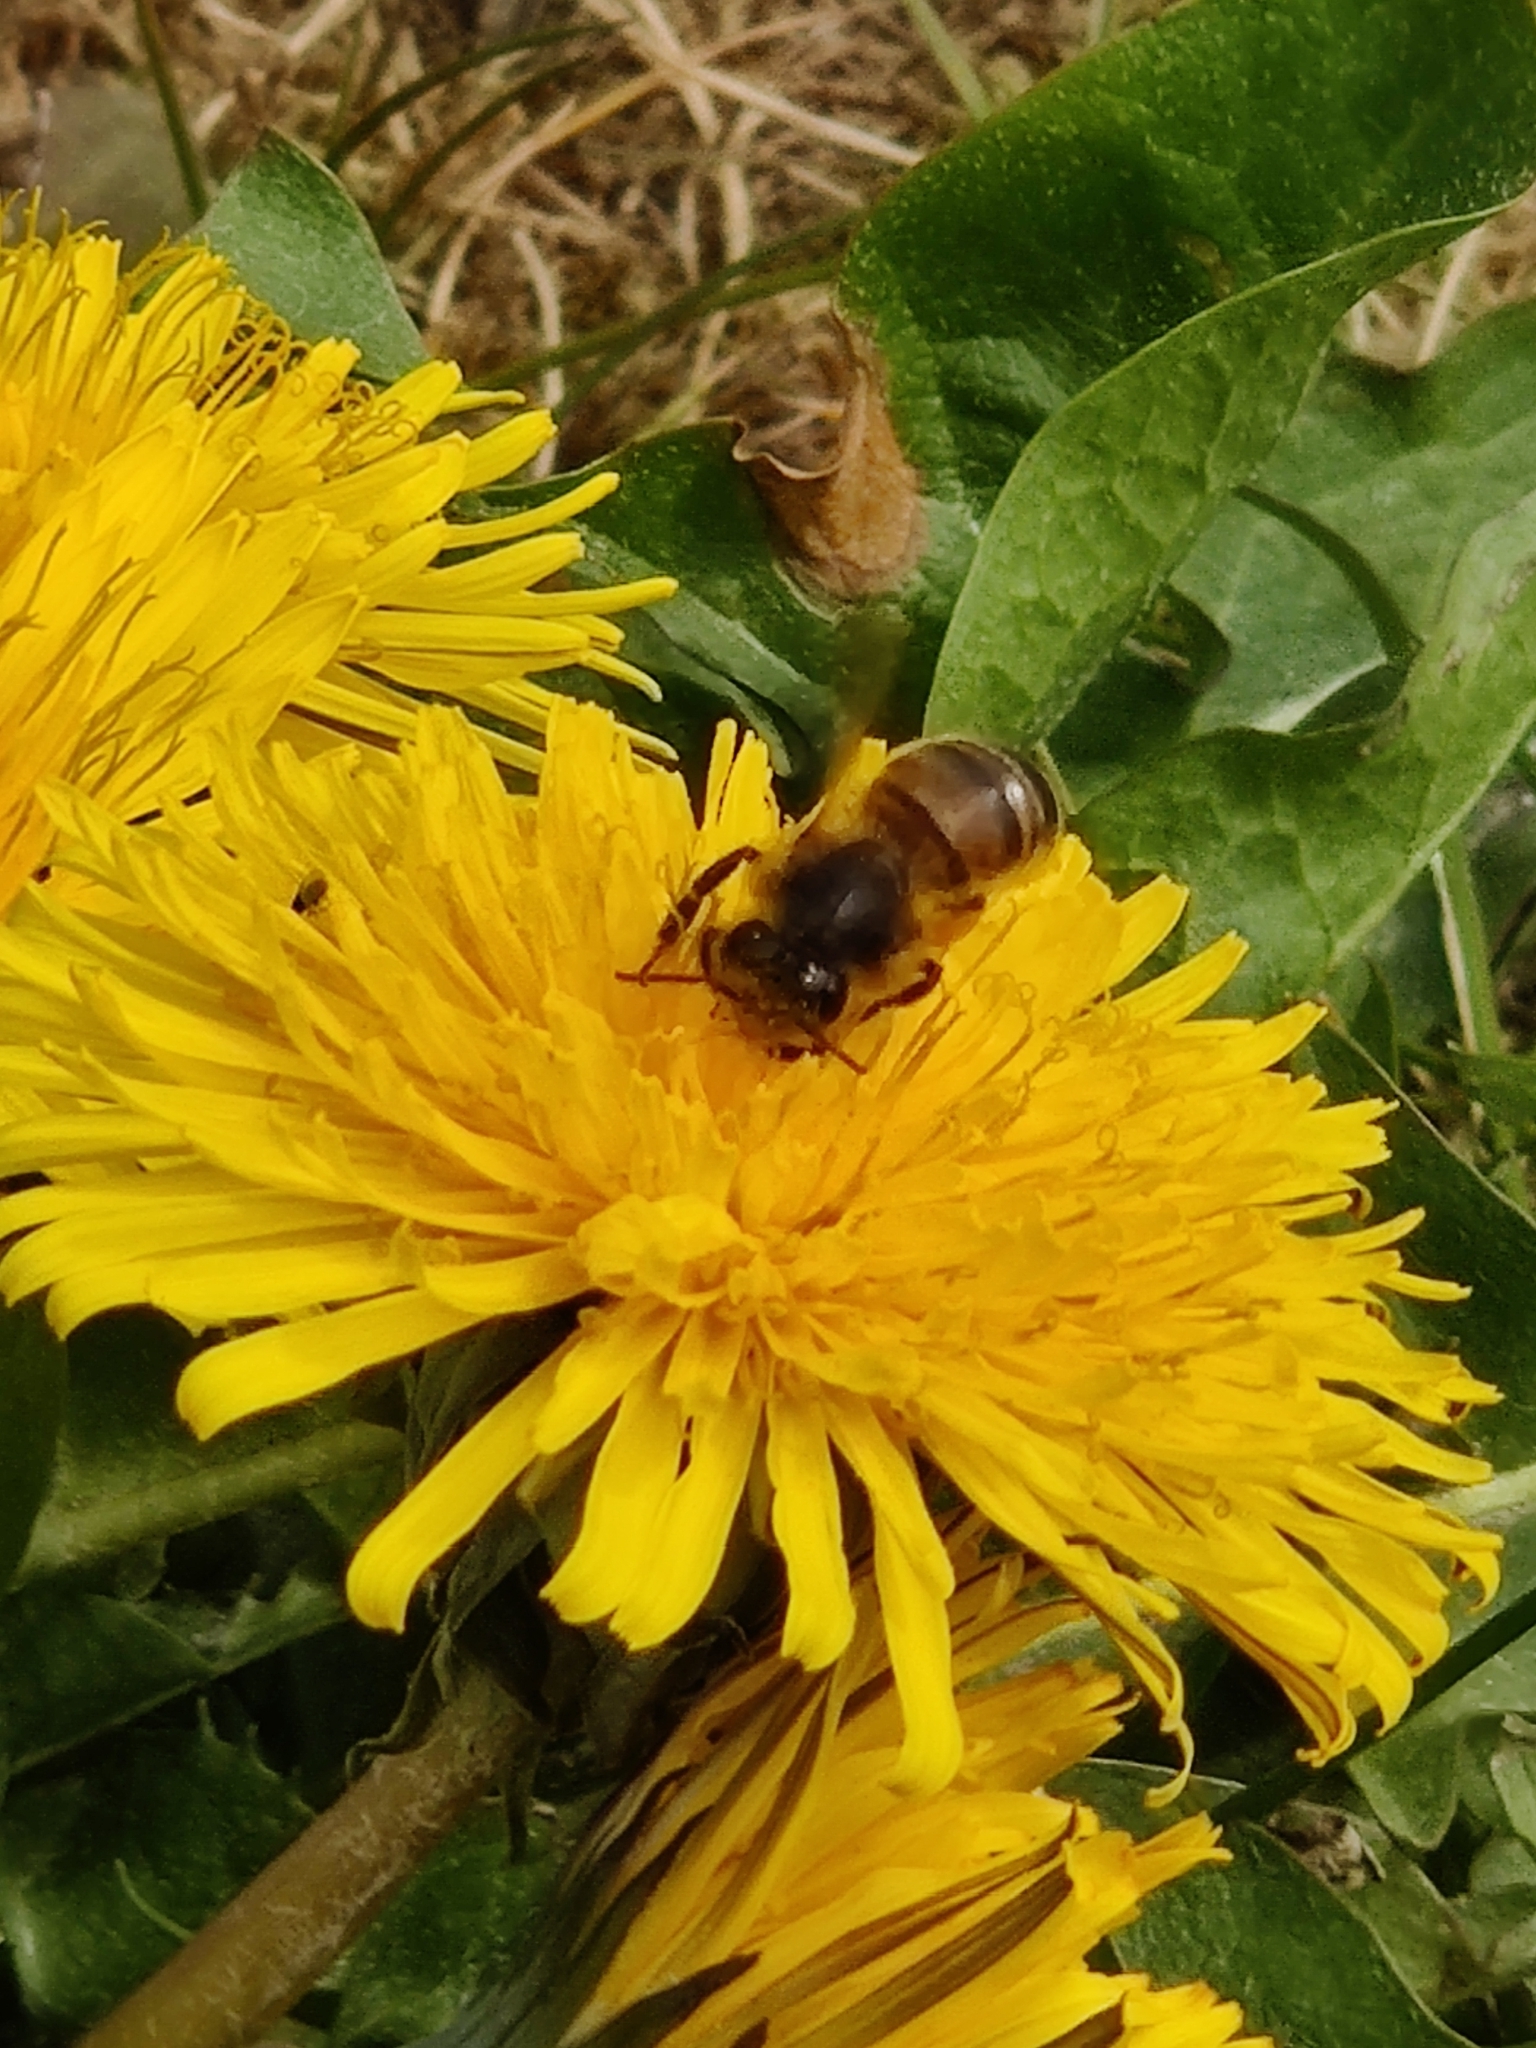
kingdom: Animalia
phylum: Arthropoda
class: Insecta
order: Hymenoptera
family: Apidae
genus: Apis
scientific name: Apis mellifera
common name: Honey bee
